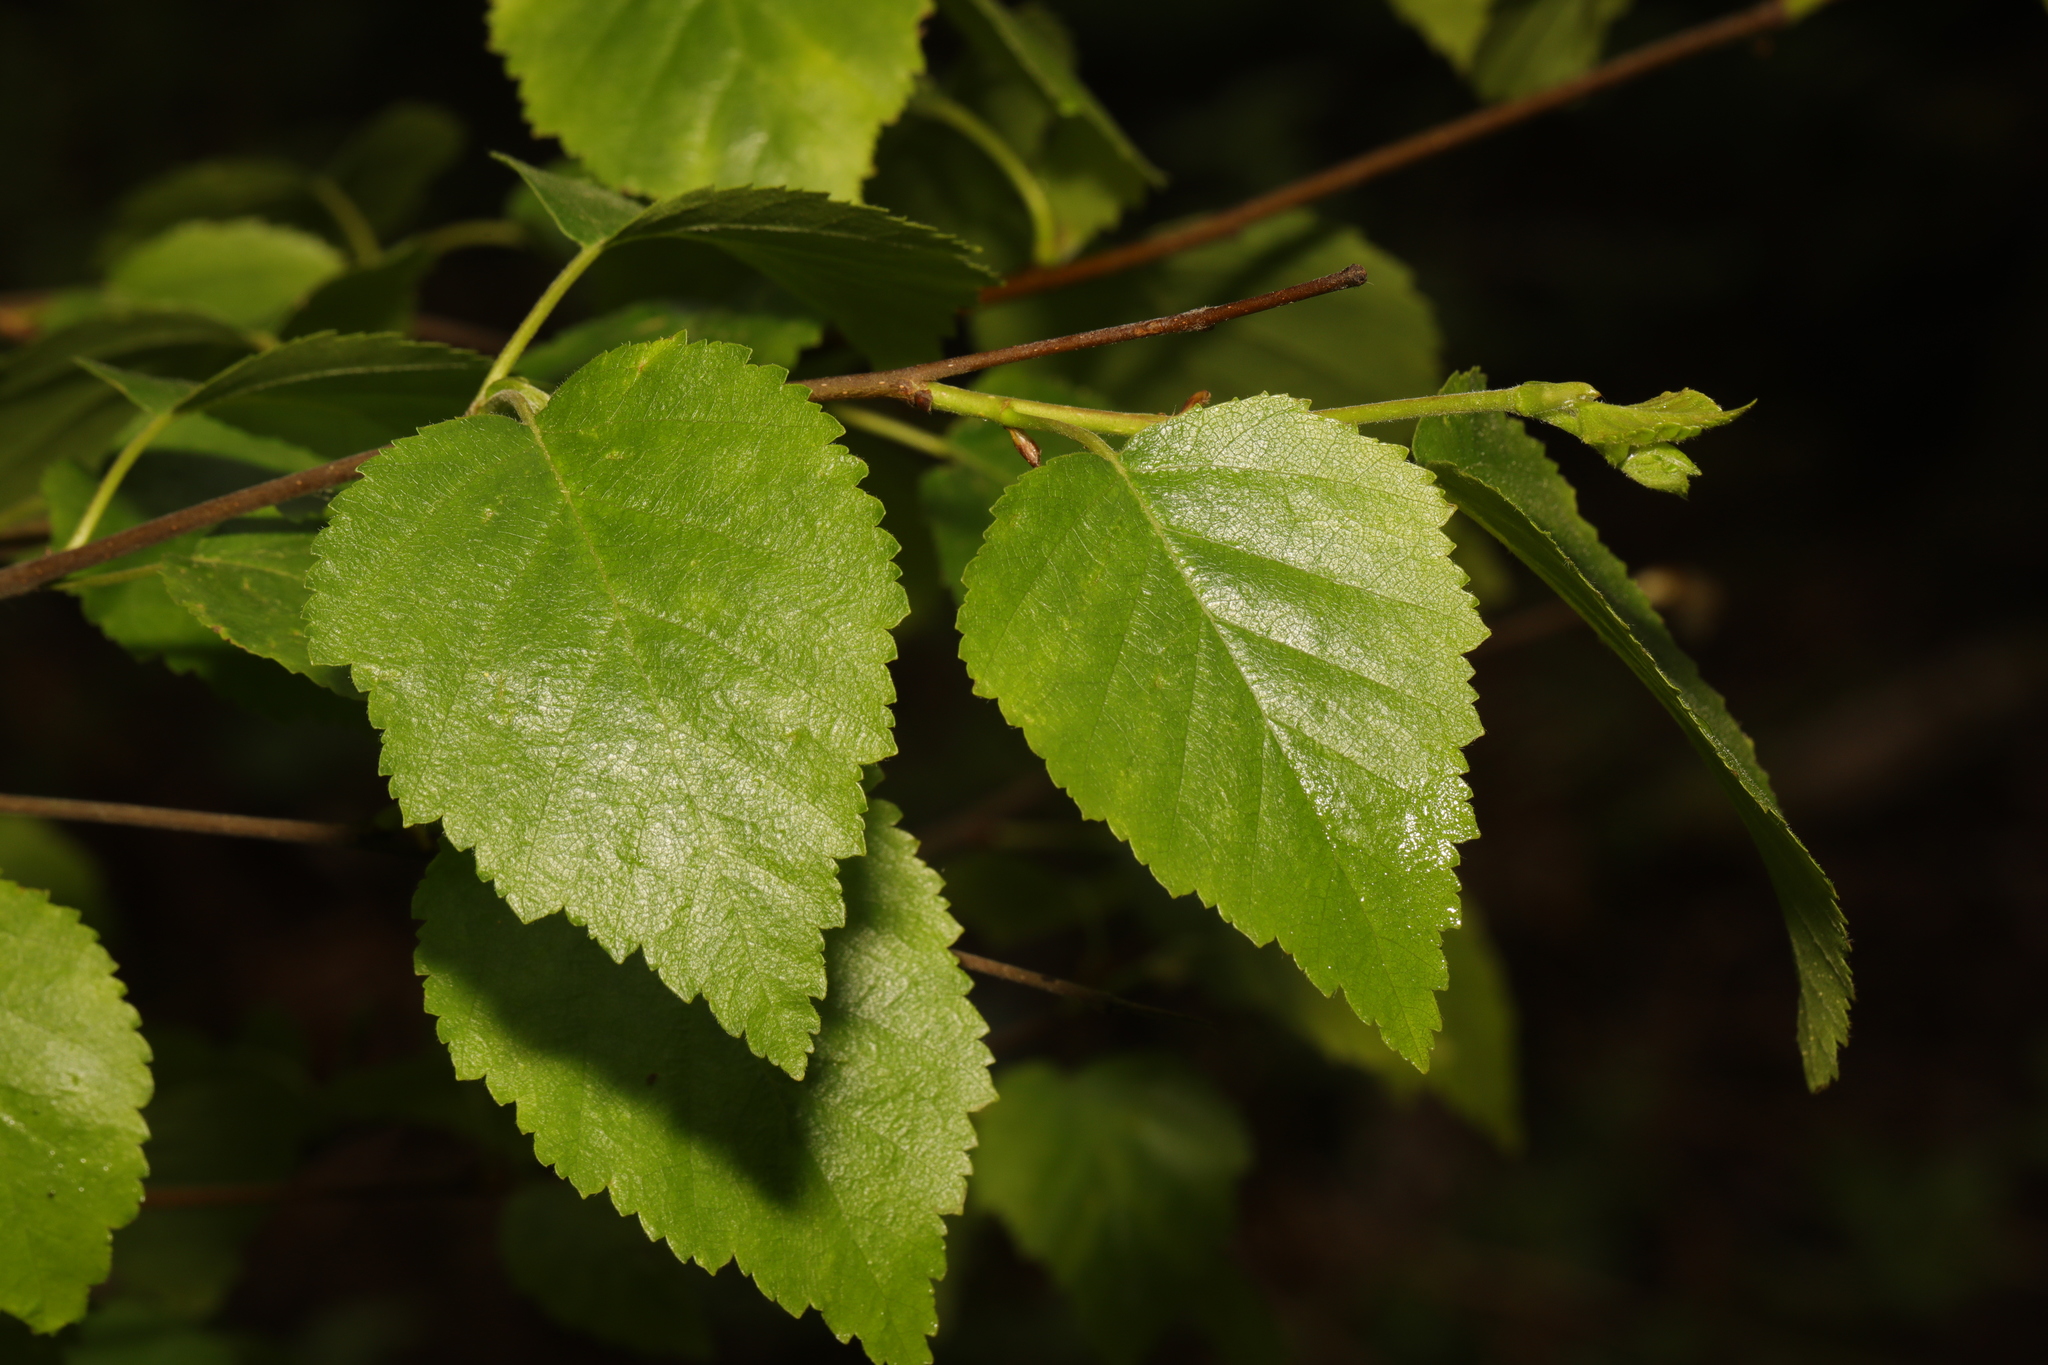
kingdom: Plantae
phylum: Tracheophyta
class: Magnoliopsida
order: Fagales
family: Betulaceae
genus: Betula
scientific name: Betula pubescens
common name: Downy birch
